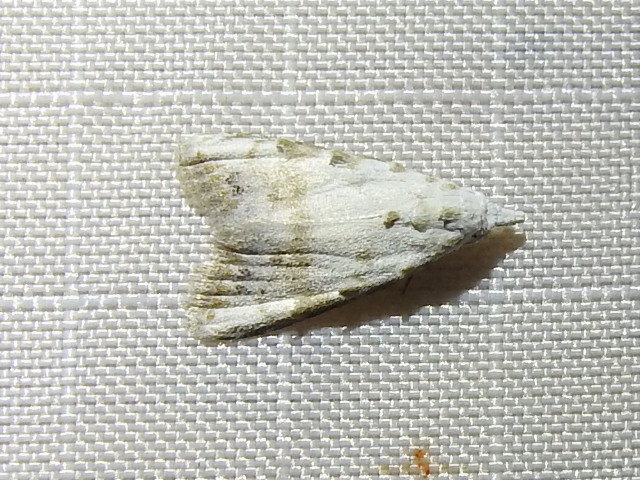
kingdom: Animalia
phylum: Arthropoda
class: Insecta
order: Lepidoptera
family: Nolidae
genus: Nola
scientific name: Nola cereella
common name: Sorghum webworm moth
